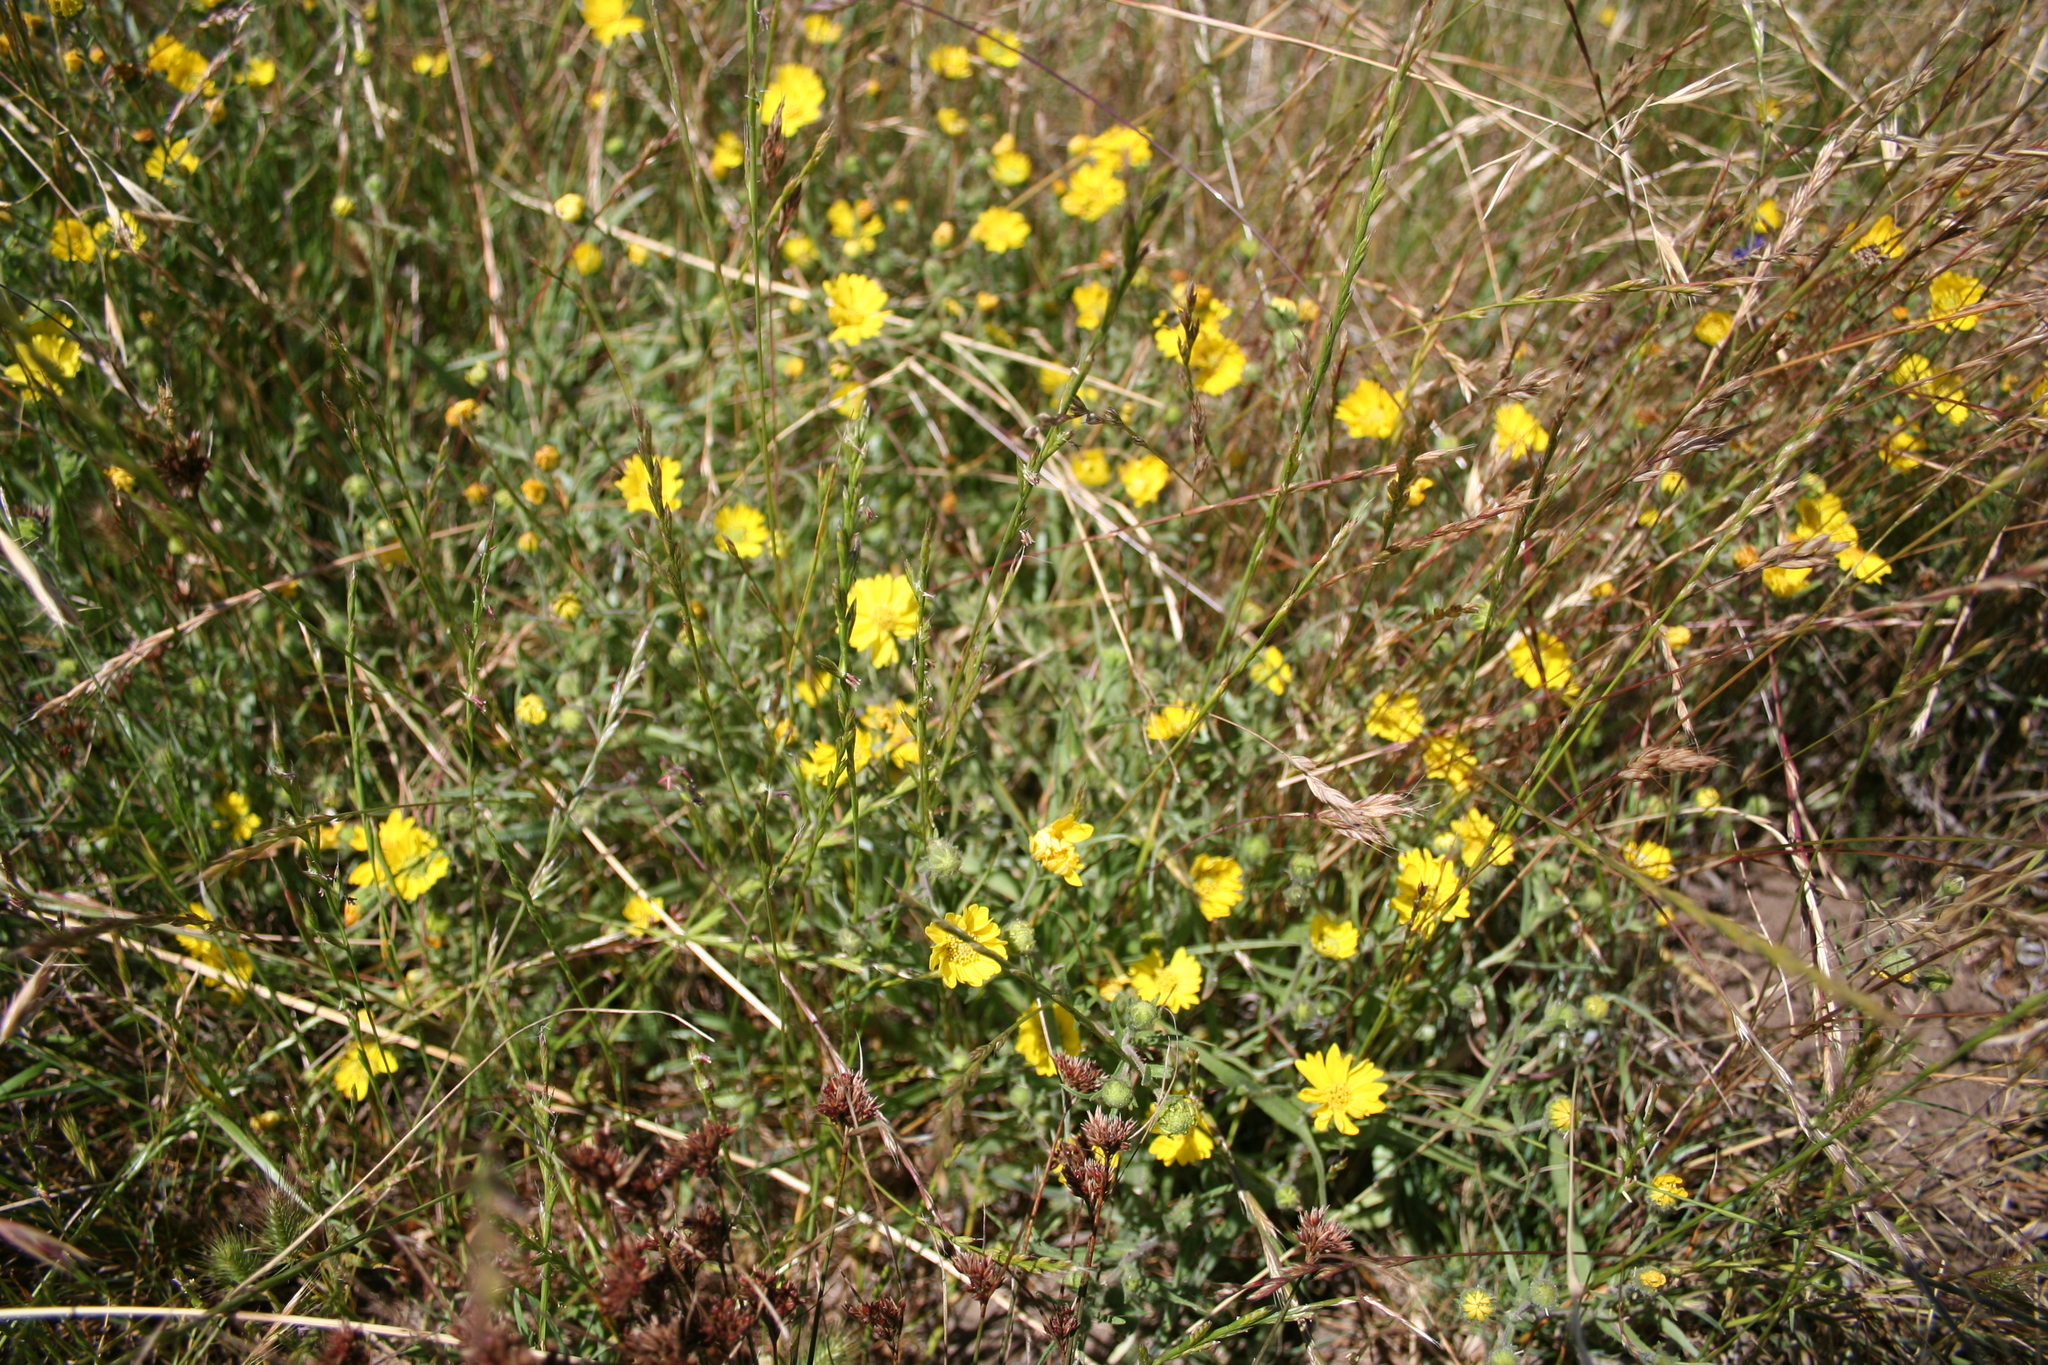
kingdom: Plantae
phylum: Tracheophyta
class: Magnoliopsida
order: Asterales
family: Asteraceae
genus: Hemizonia
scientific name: Hemizonia congesta
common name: Hayfield tarweed
